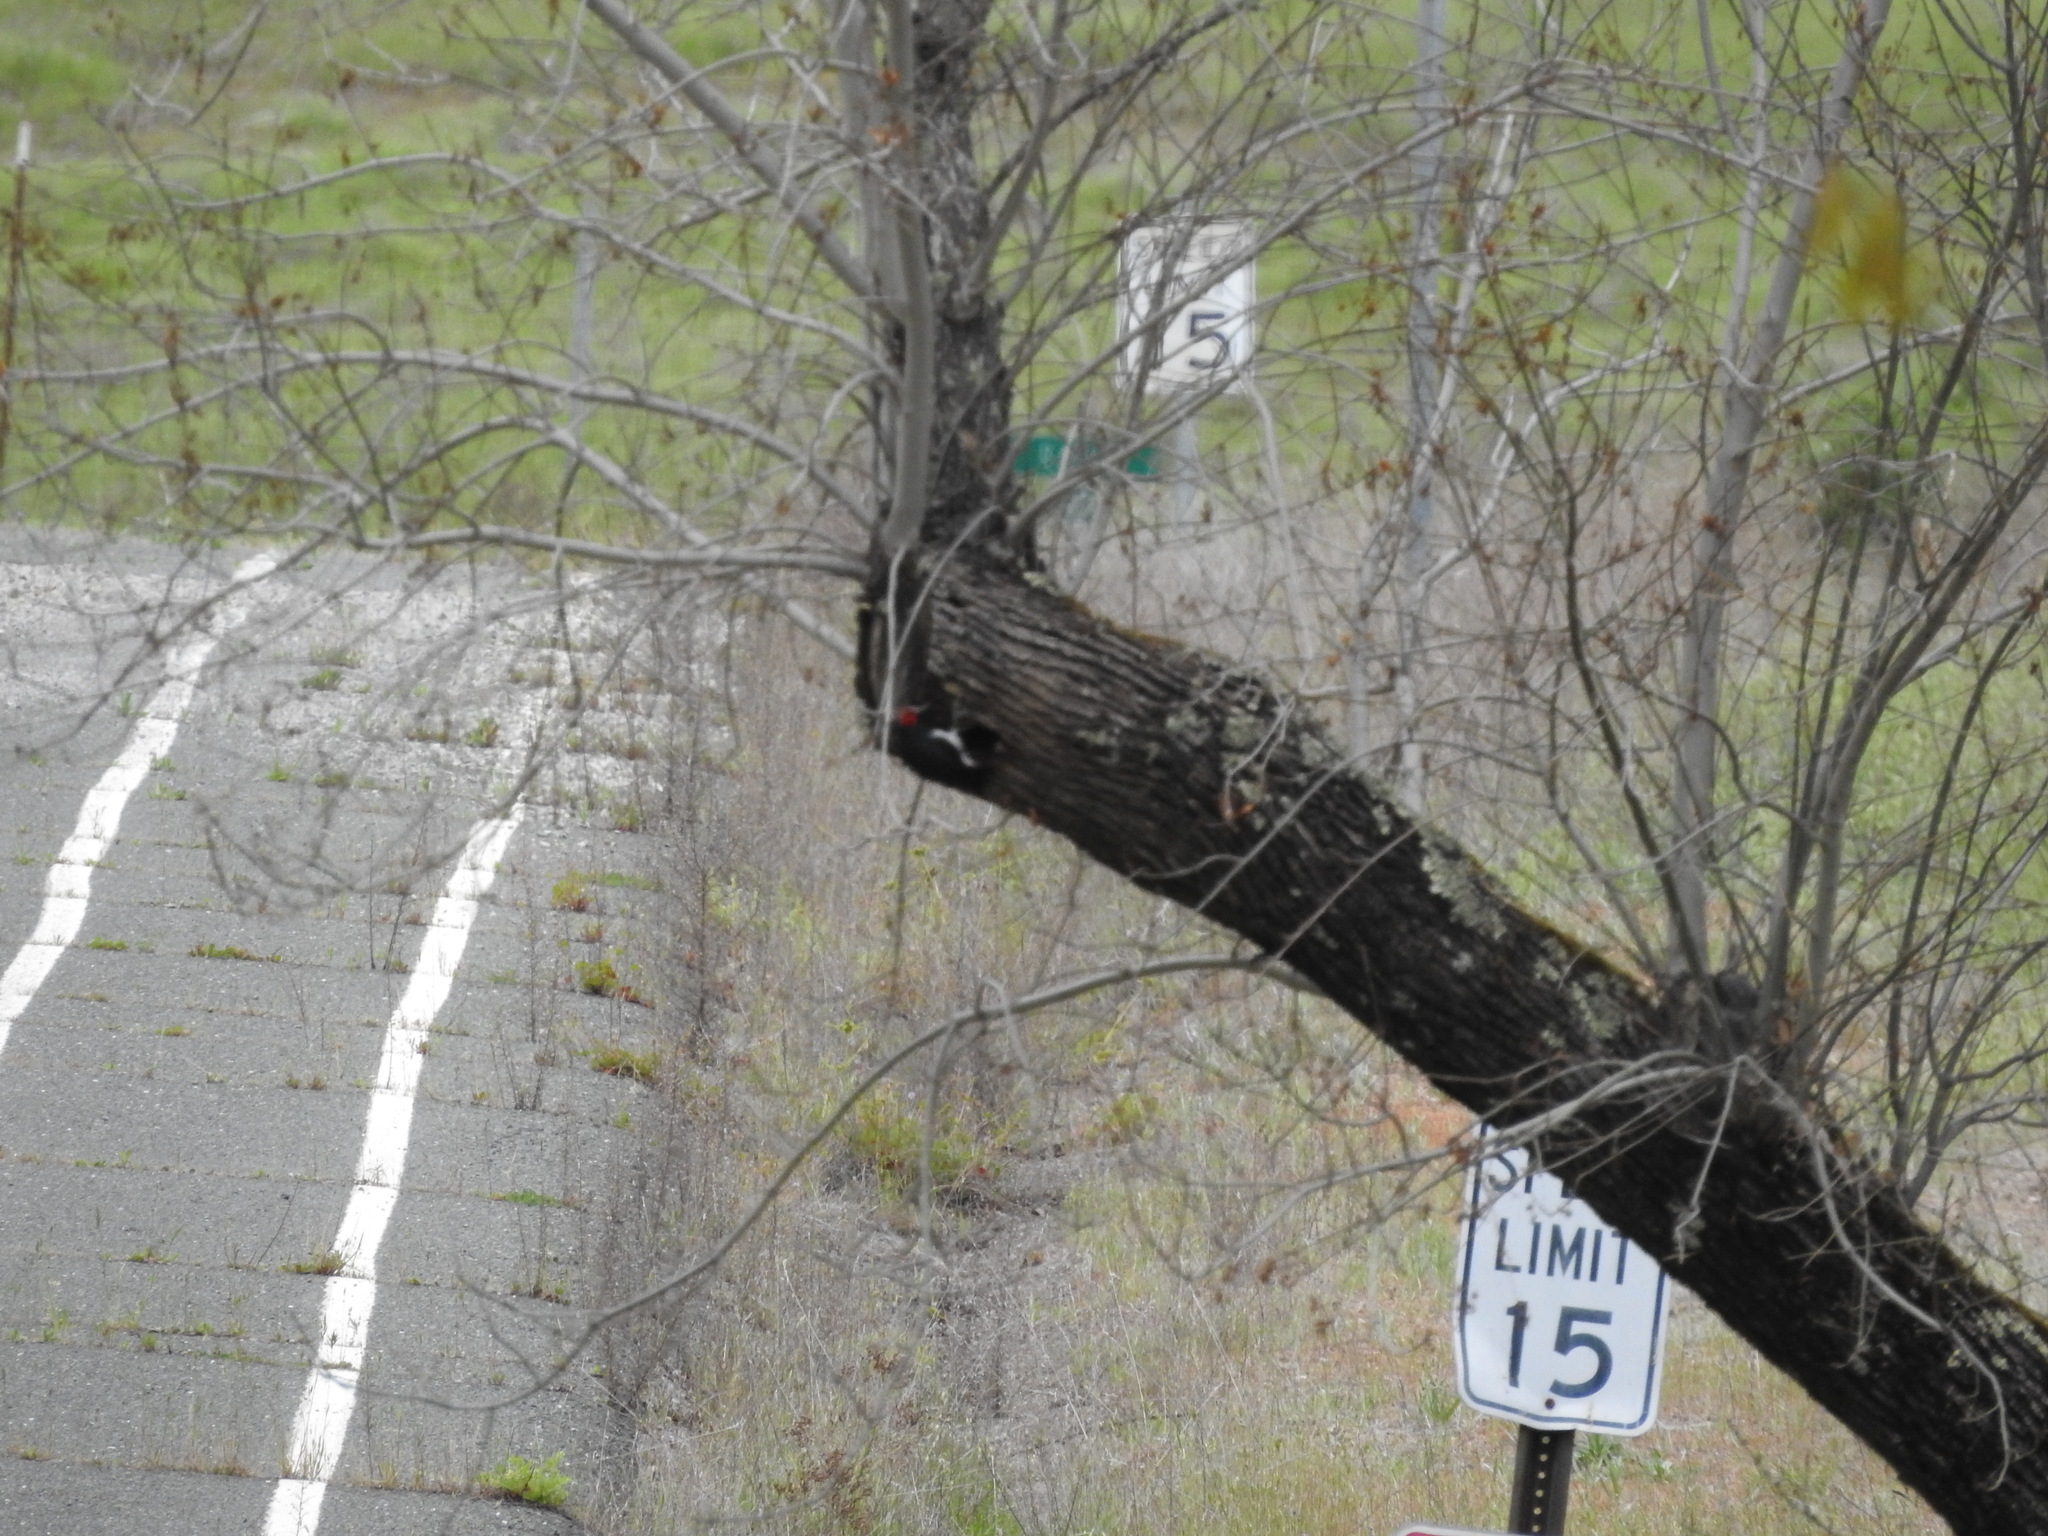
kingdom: Animalia
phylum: Chordata
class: Aves
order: Piciformes
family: Picidae
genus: Melanerpes
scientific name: Melanerpes formicivorus
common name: Acorn woodpecker
